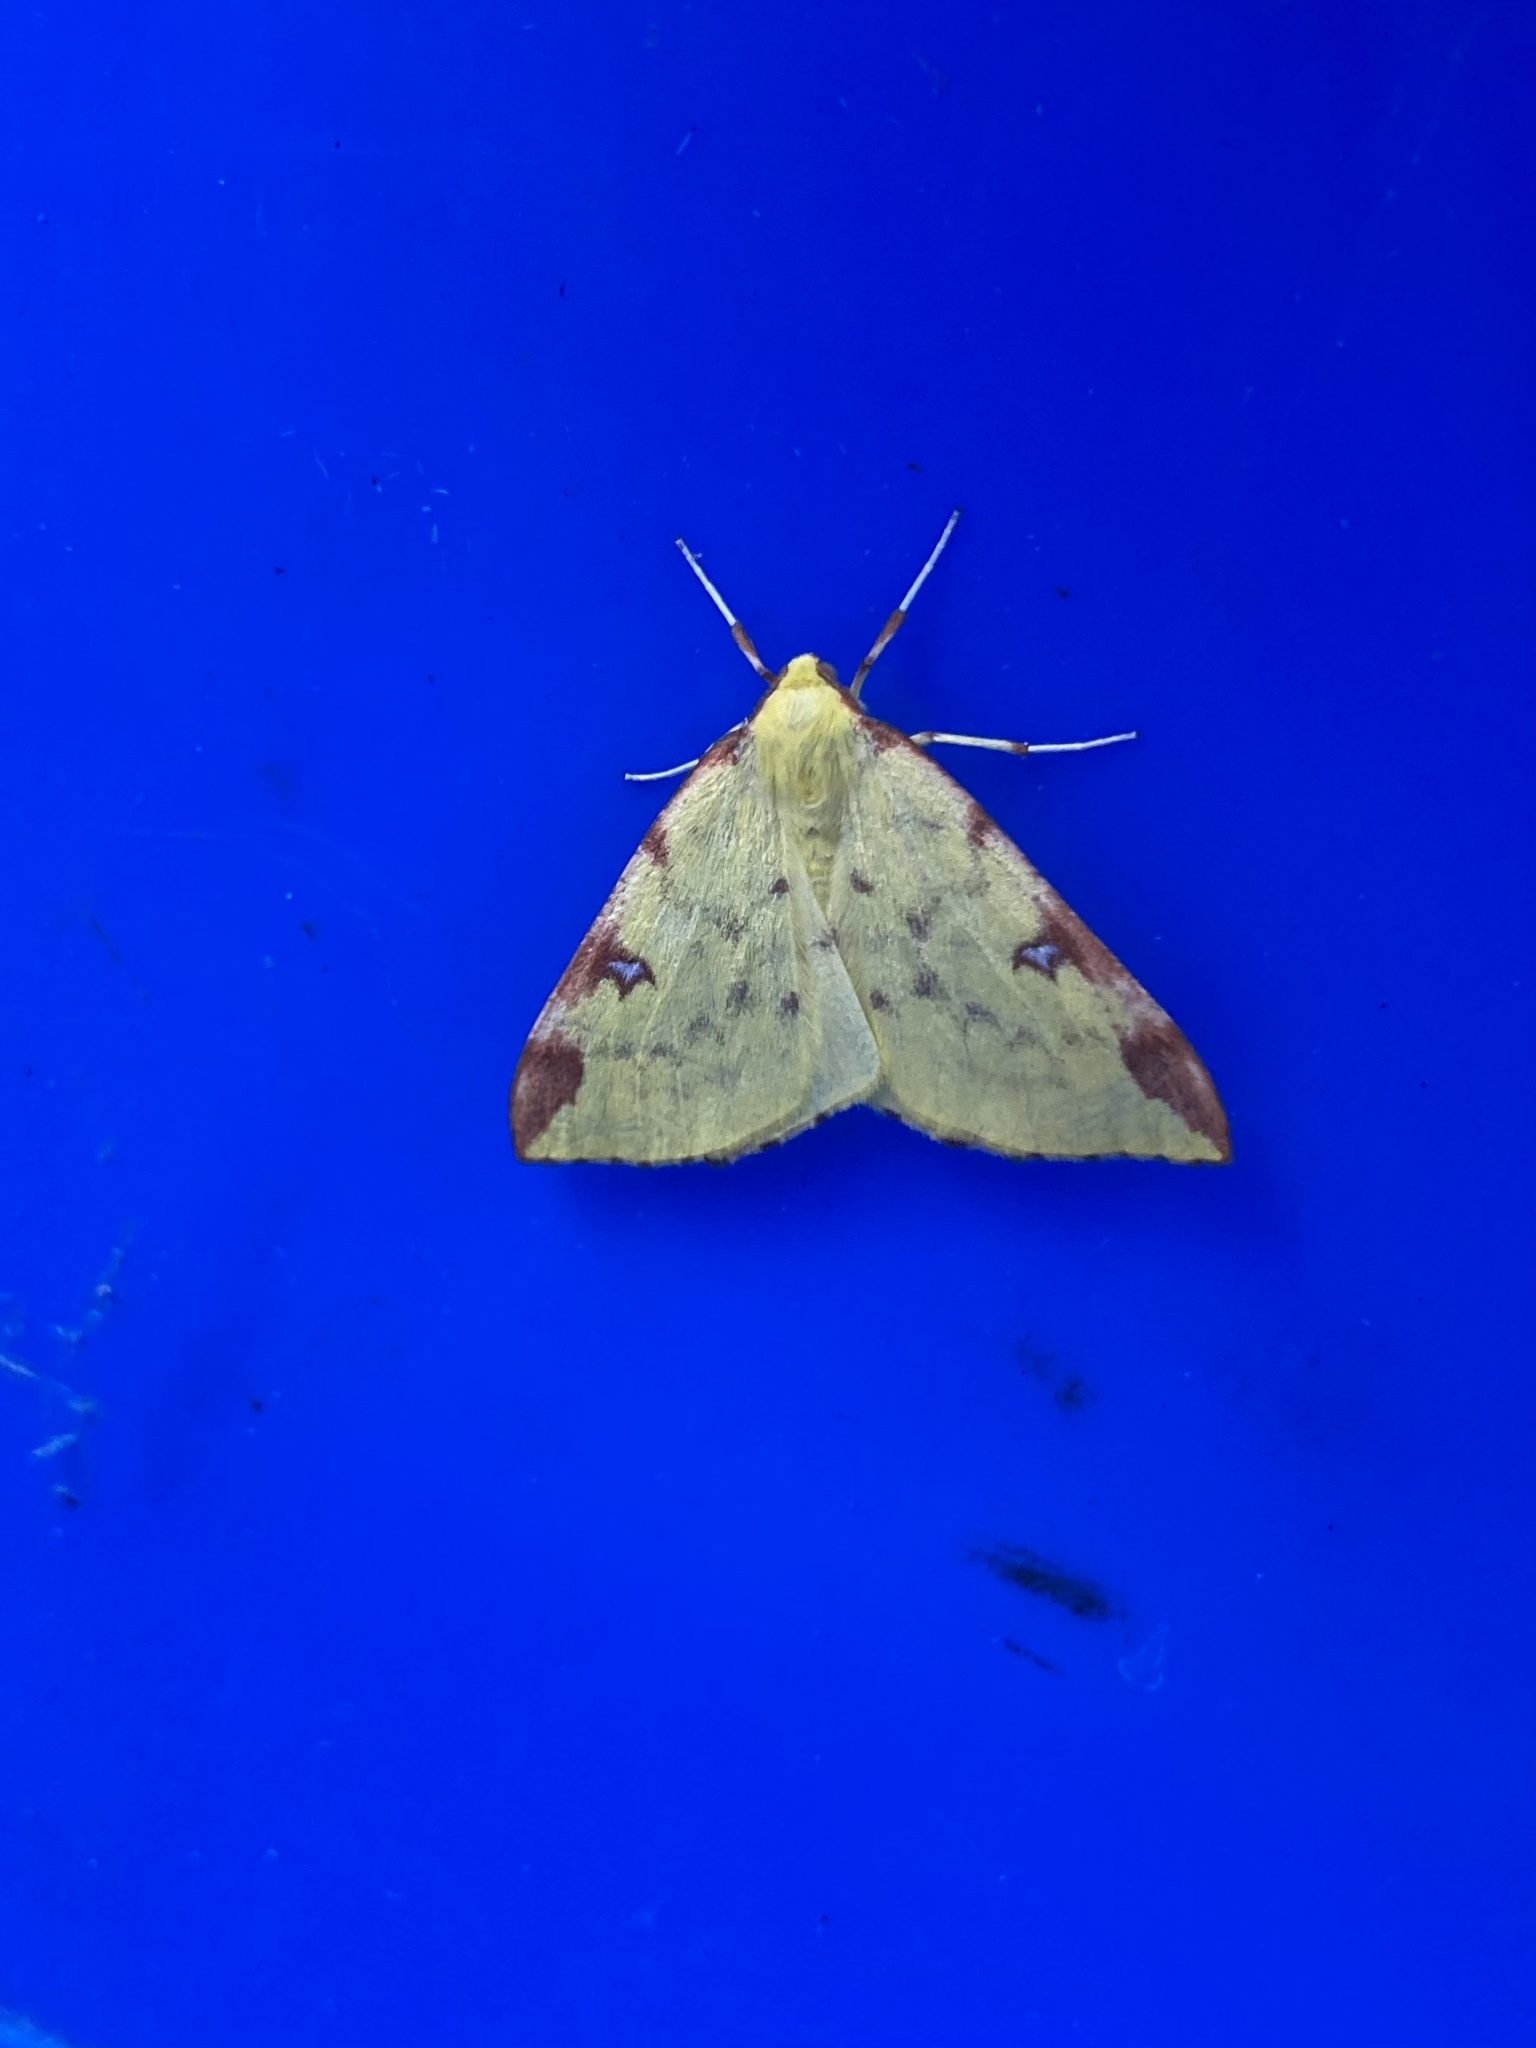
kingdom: Animalia
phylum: Arthropoda
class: Insecta
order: Lepidoptera
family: Geometridae
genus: Opisthograptis
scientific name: Opisthograptis luteolata
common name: Brimstone moth
